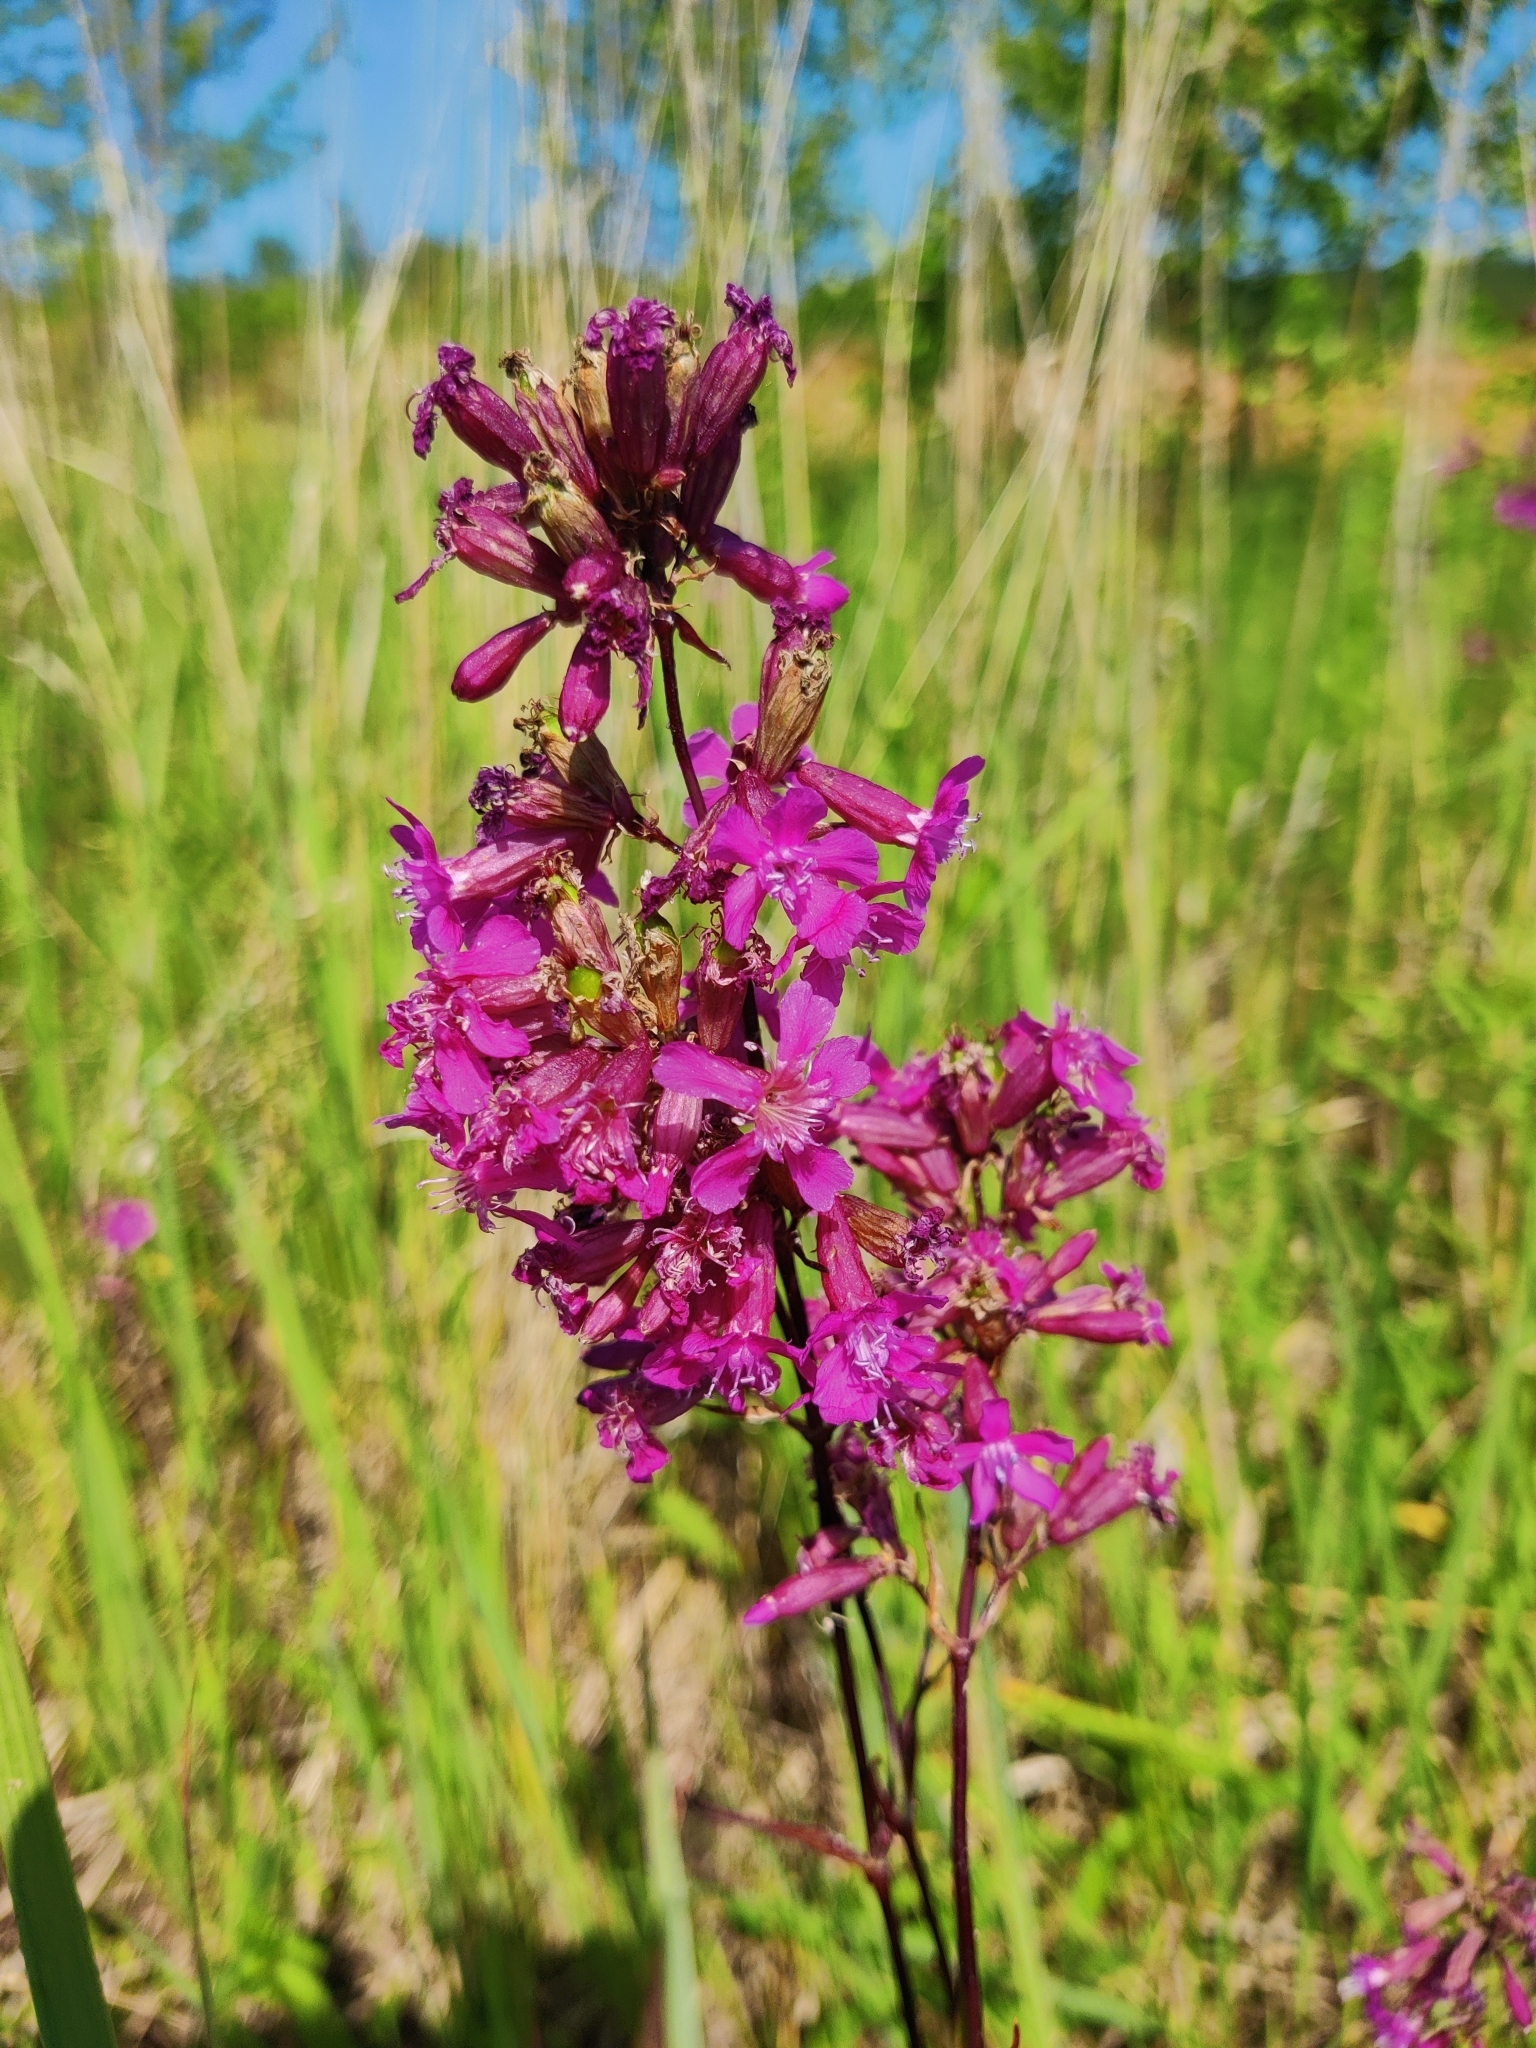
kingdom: Plantae
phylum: Tracheophyta
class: Magnoliopsida
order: Caryophyllales
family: Caryophyllaceae
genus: Viscaria
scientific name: Viscaria vulgaris
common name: Clammy campion
